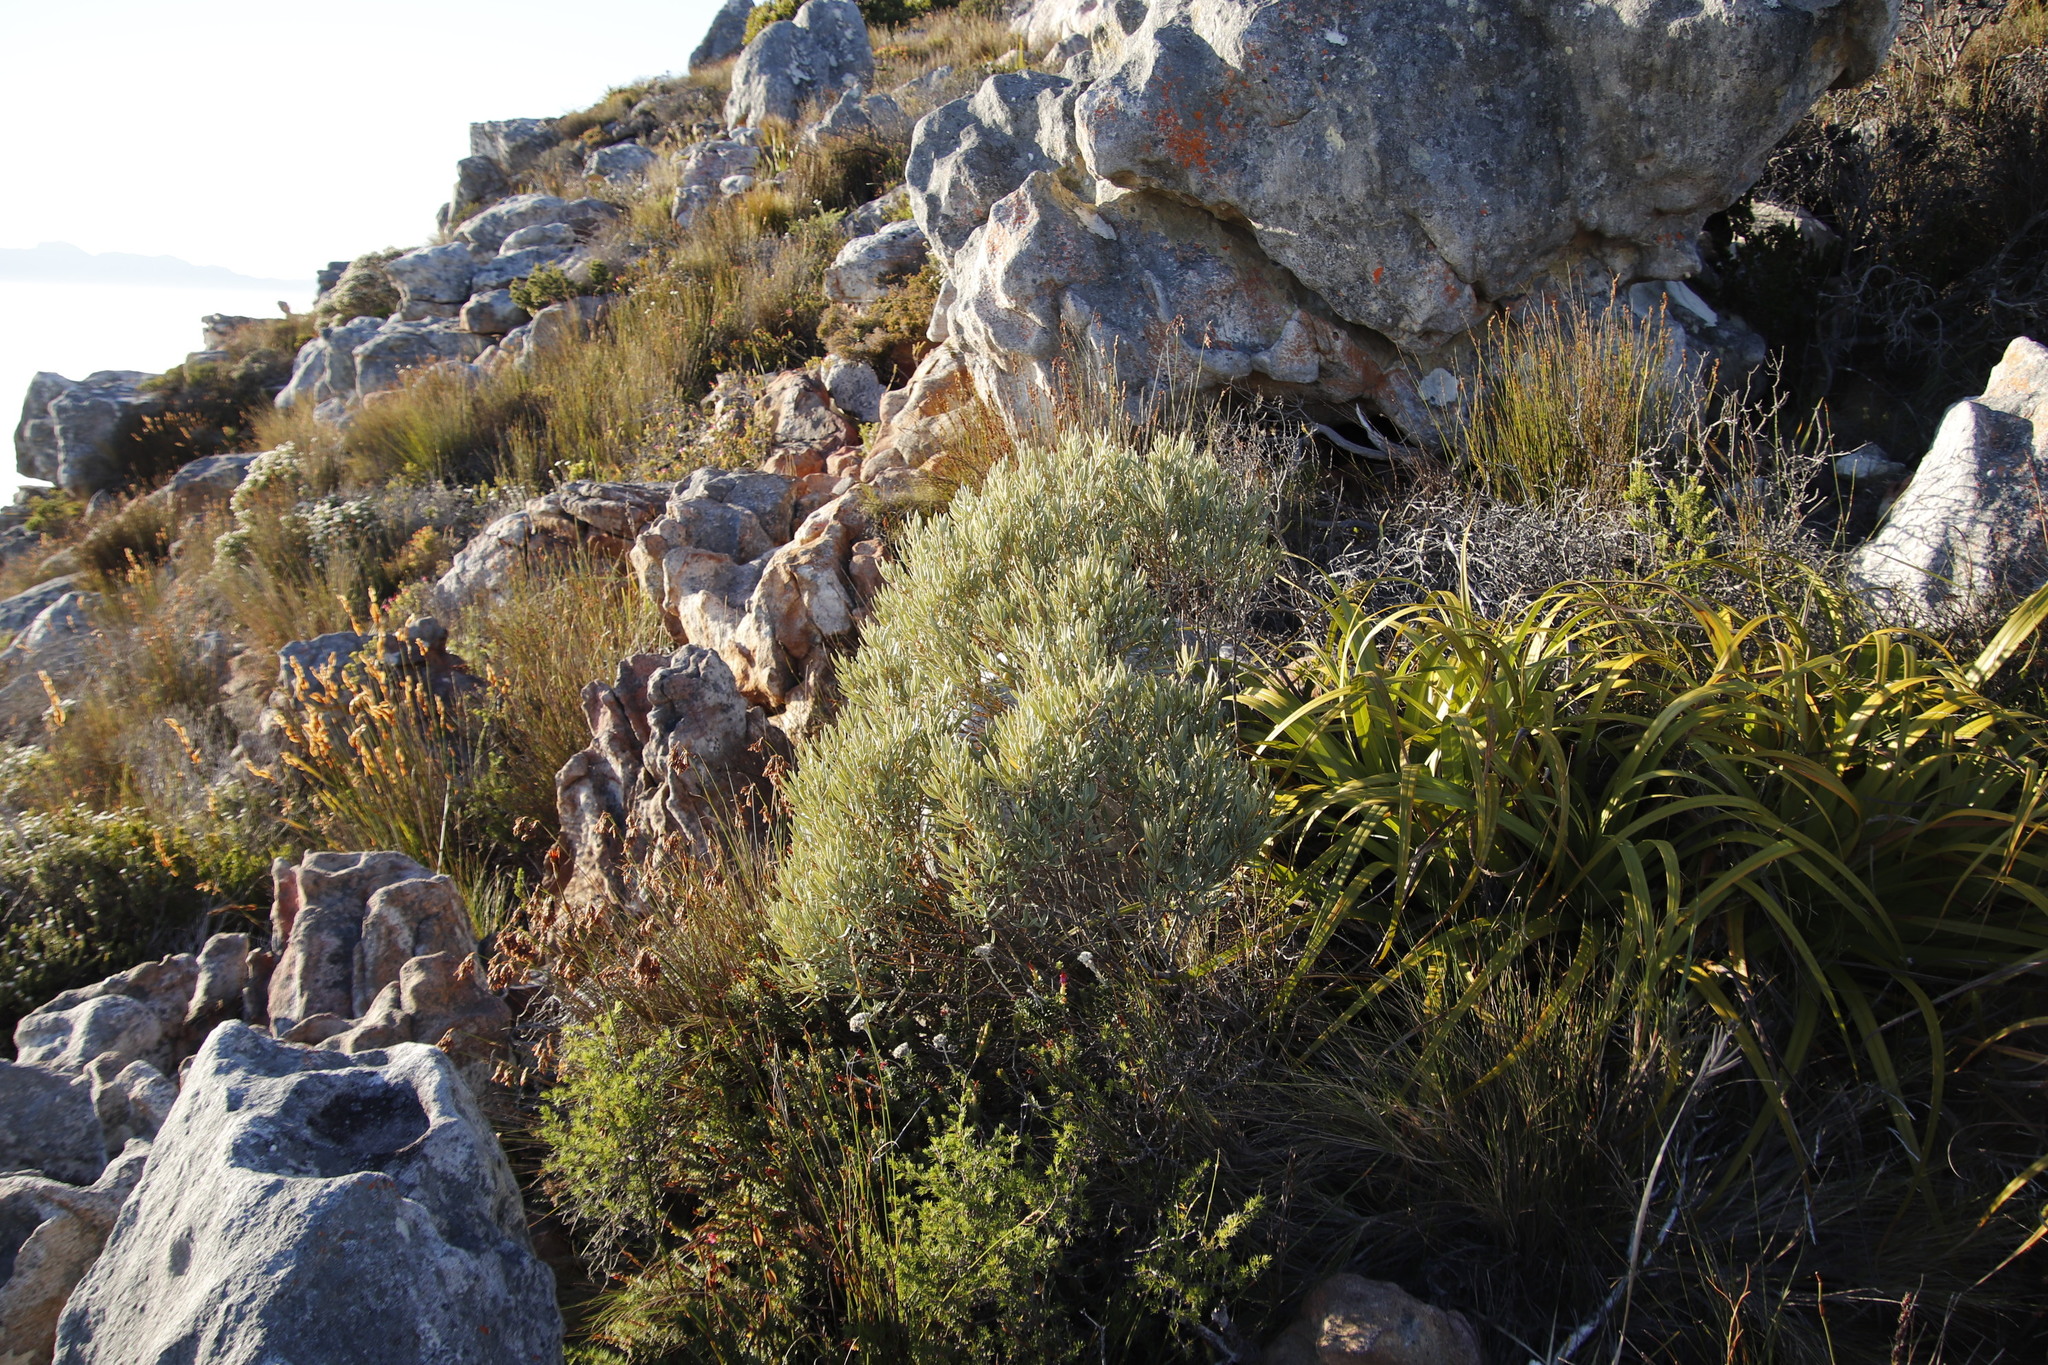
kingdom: Plantae
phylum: Tracheophyta
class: Magnoliopsida
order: Cornales
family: Grubbiaceae
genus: Grubbia
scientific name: Grubbia tomentosa
